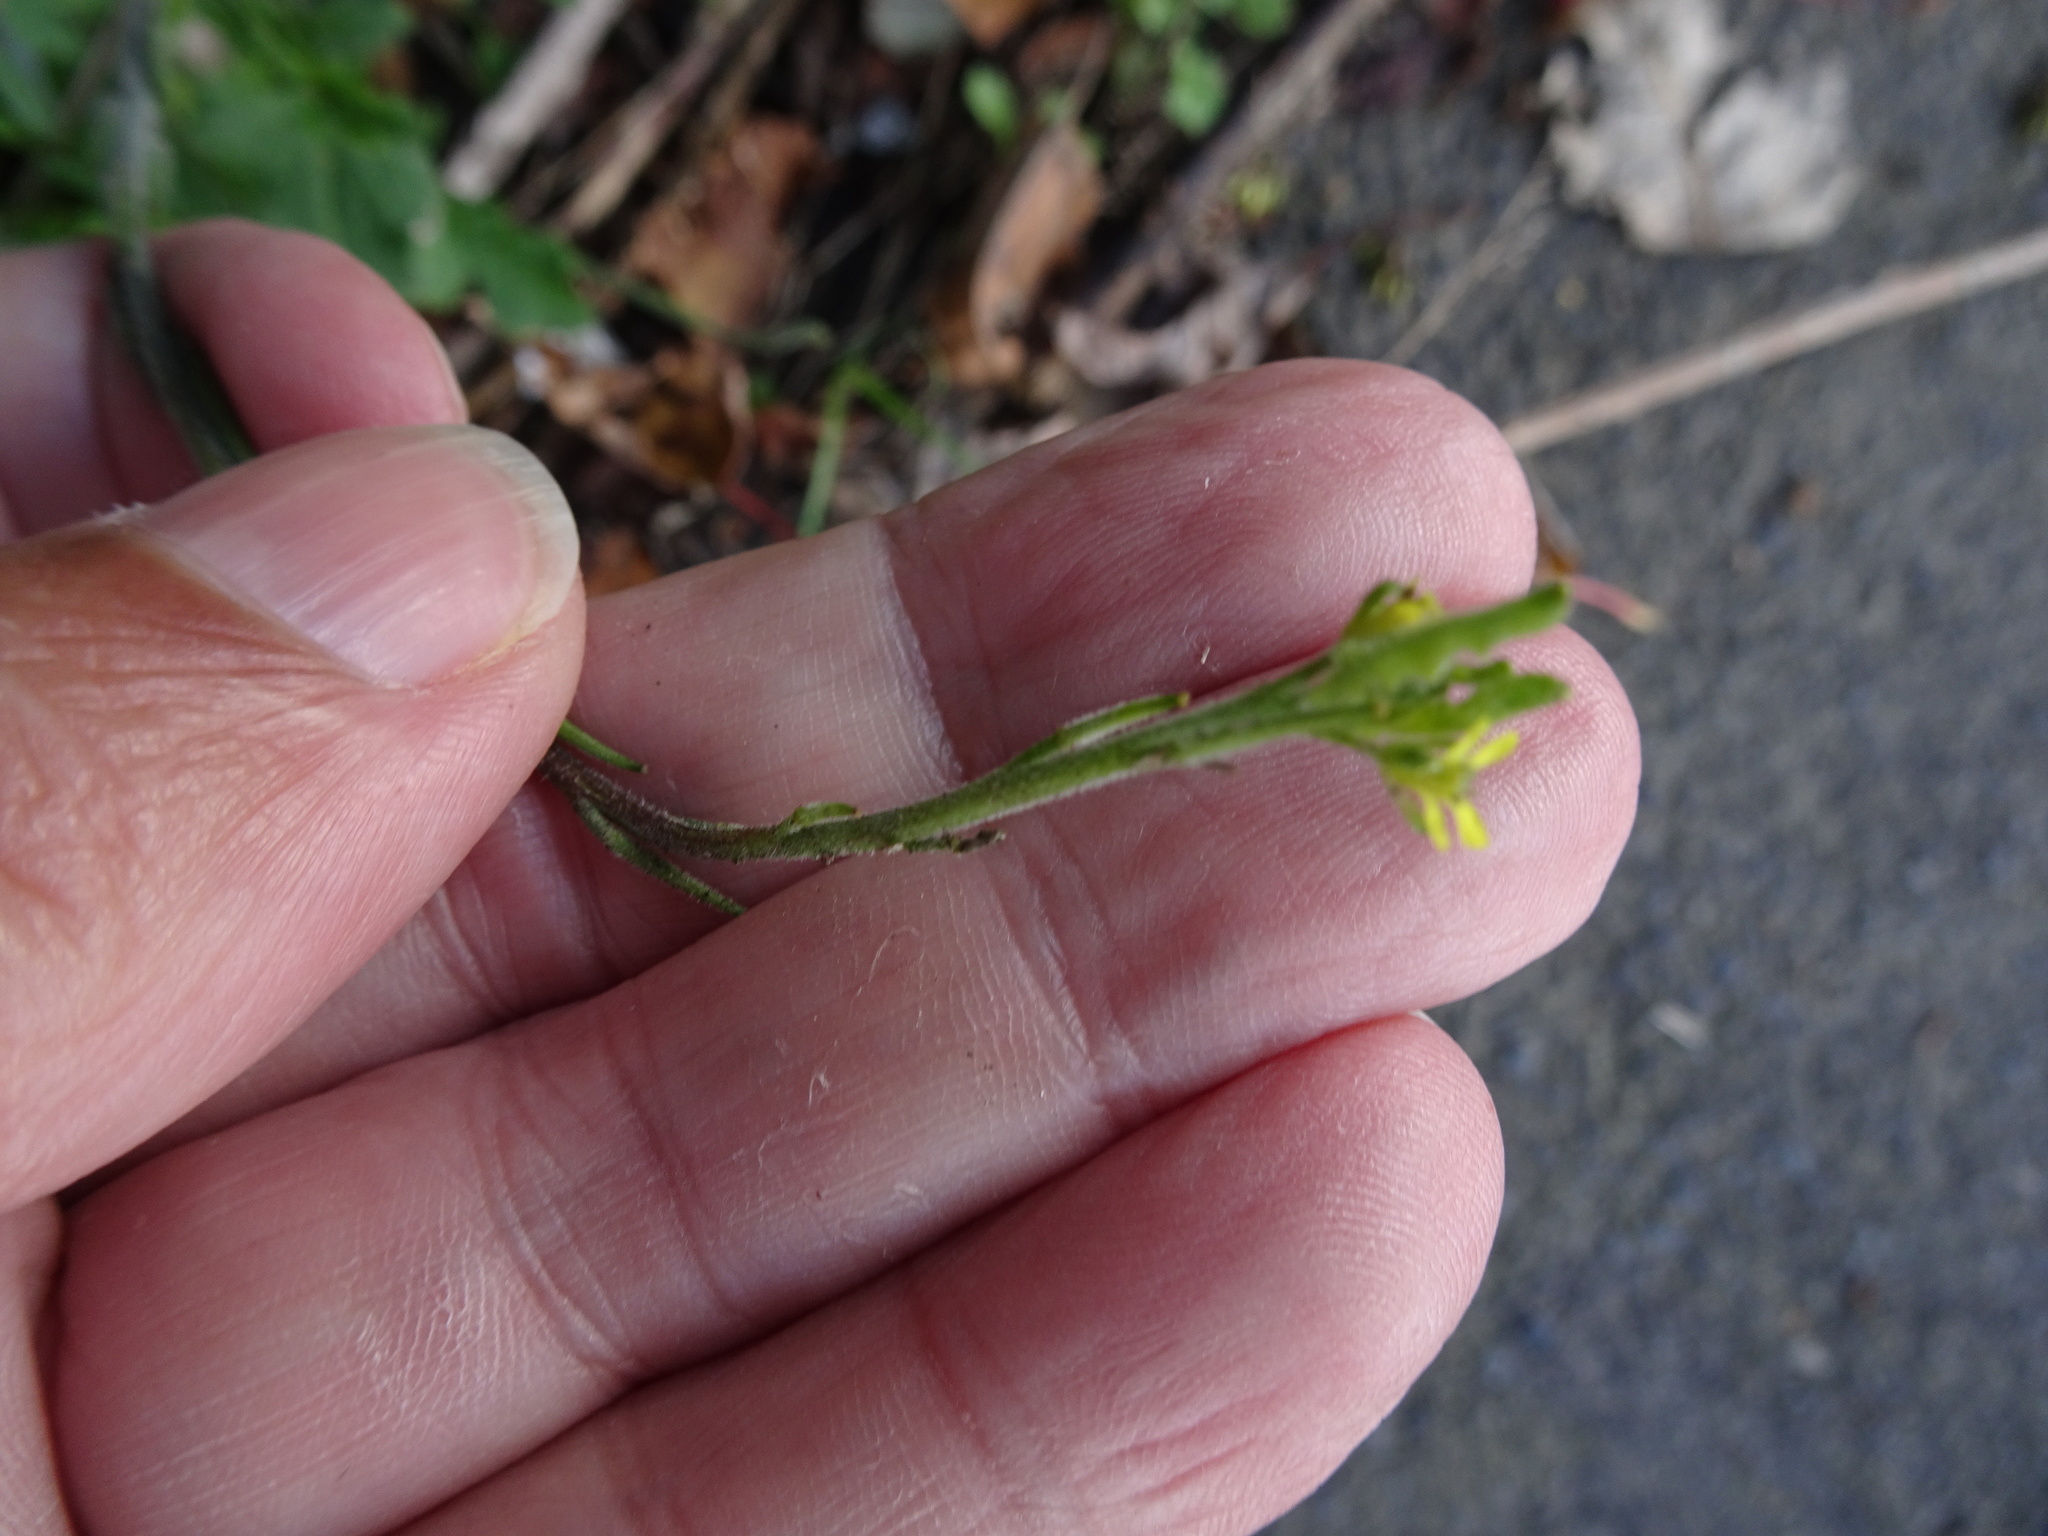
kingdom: Plantae
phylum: Tracheophyta
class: Magnoliopsida
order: Brassicales
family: Brassicaceae
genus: Sisymbrium
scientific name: Sisymbrium officinale
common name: Hedge mustard
